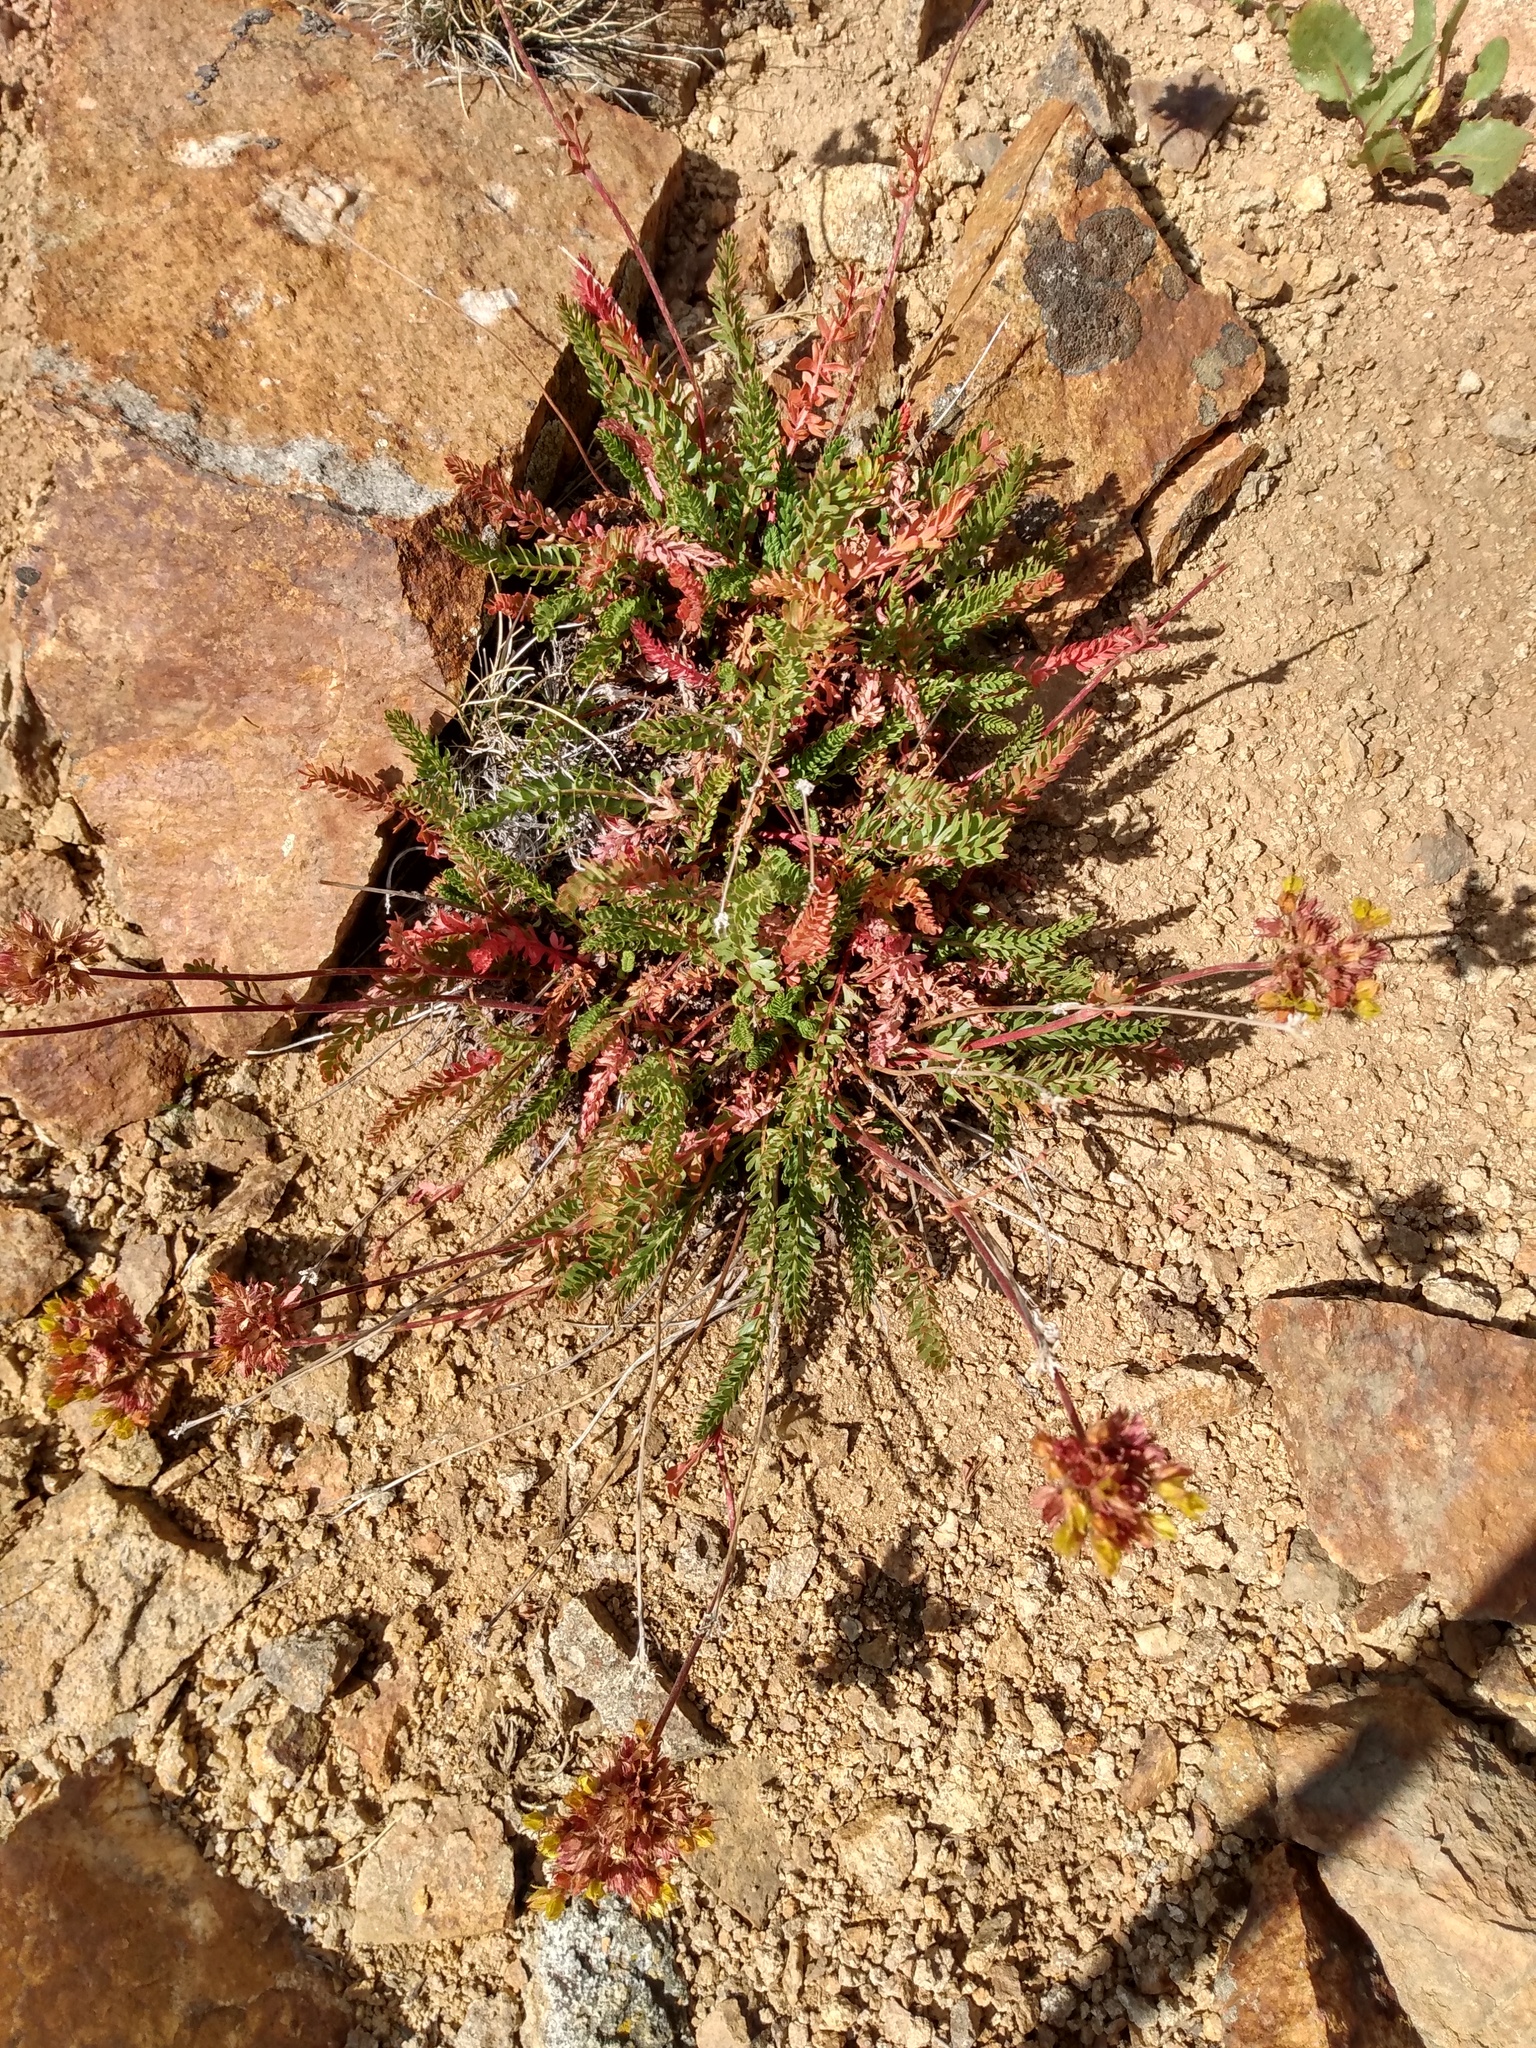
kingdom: Plantae
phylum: Tracheophyta
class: Magnoliopsida
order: Rosales
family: Rosaceae
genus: Potentilla
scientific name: Potentilla gordonii
